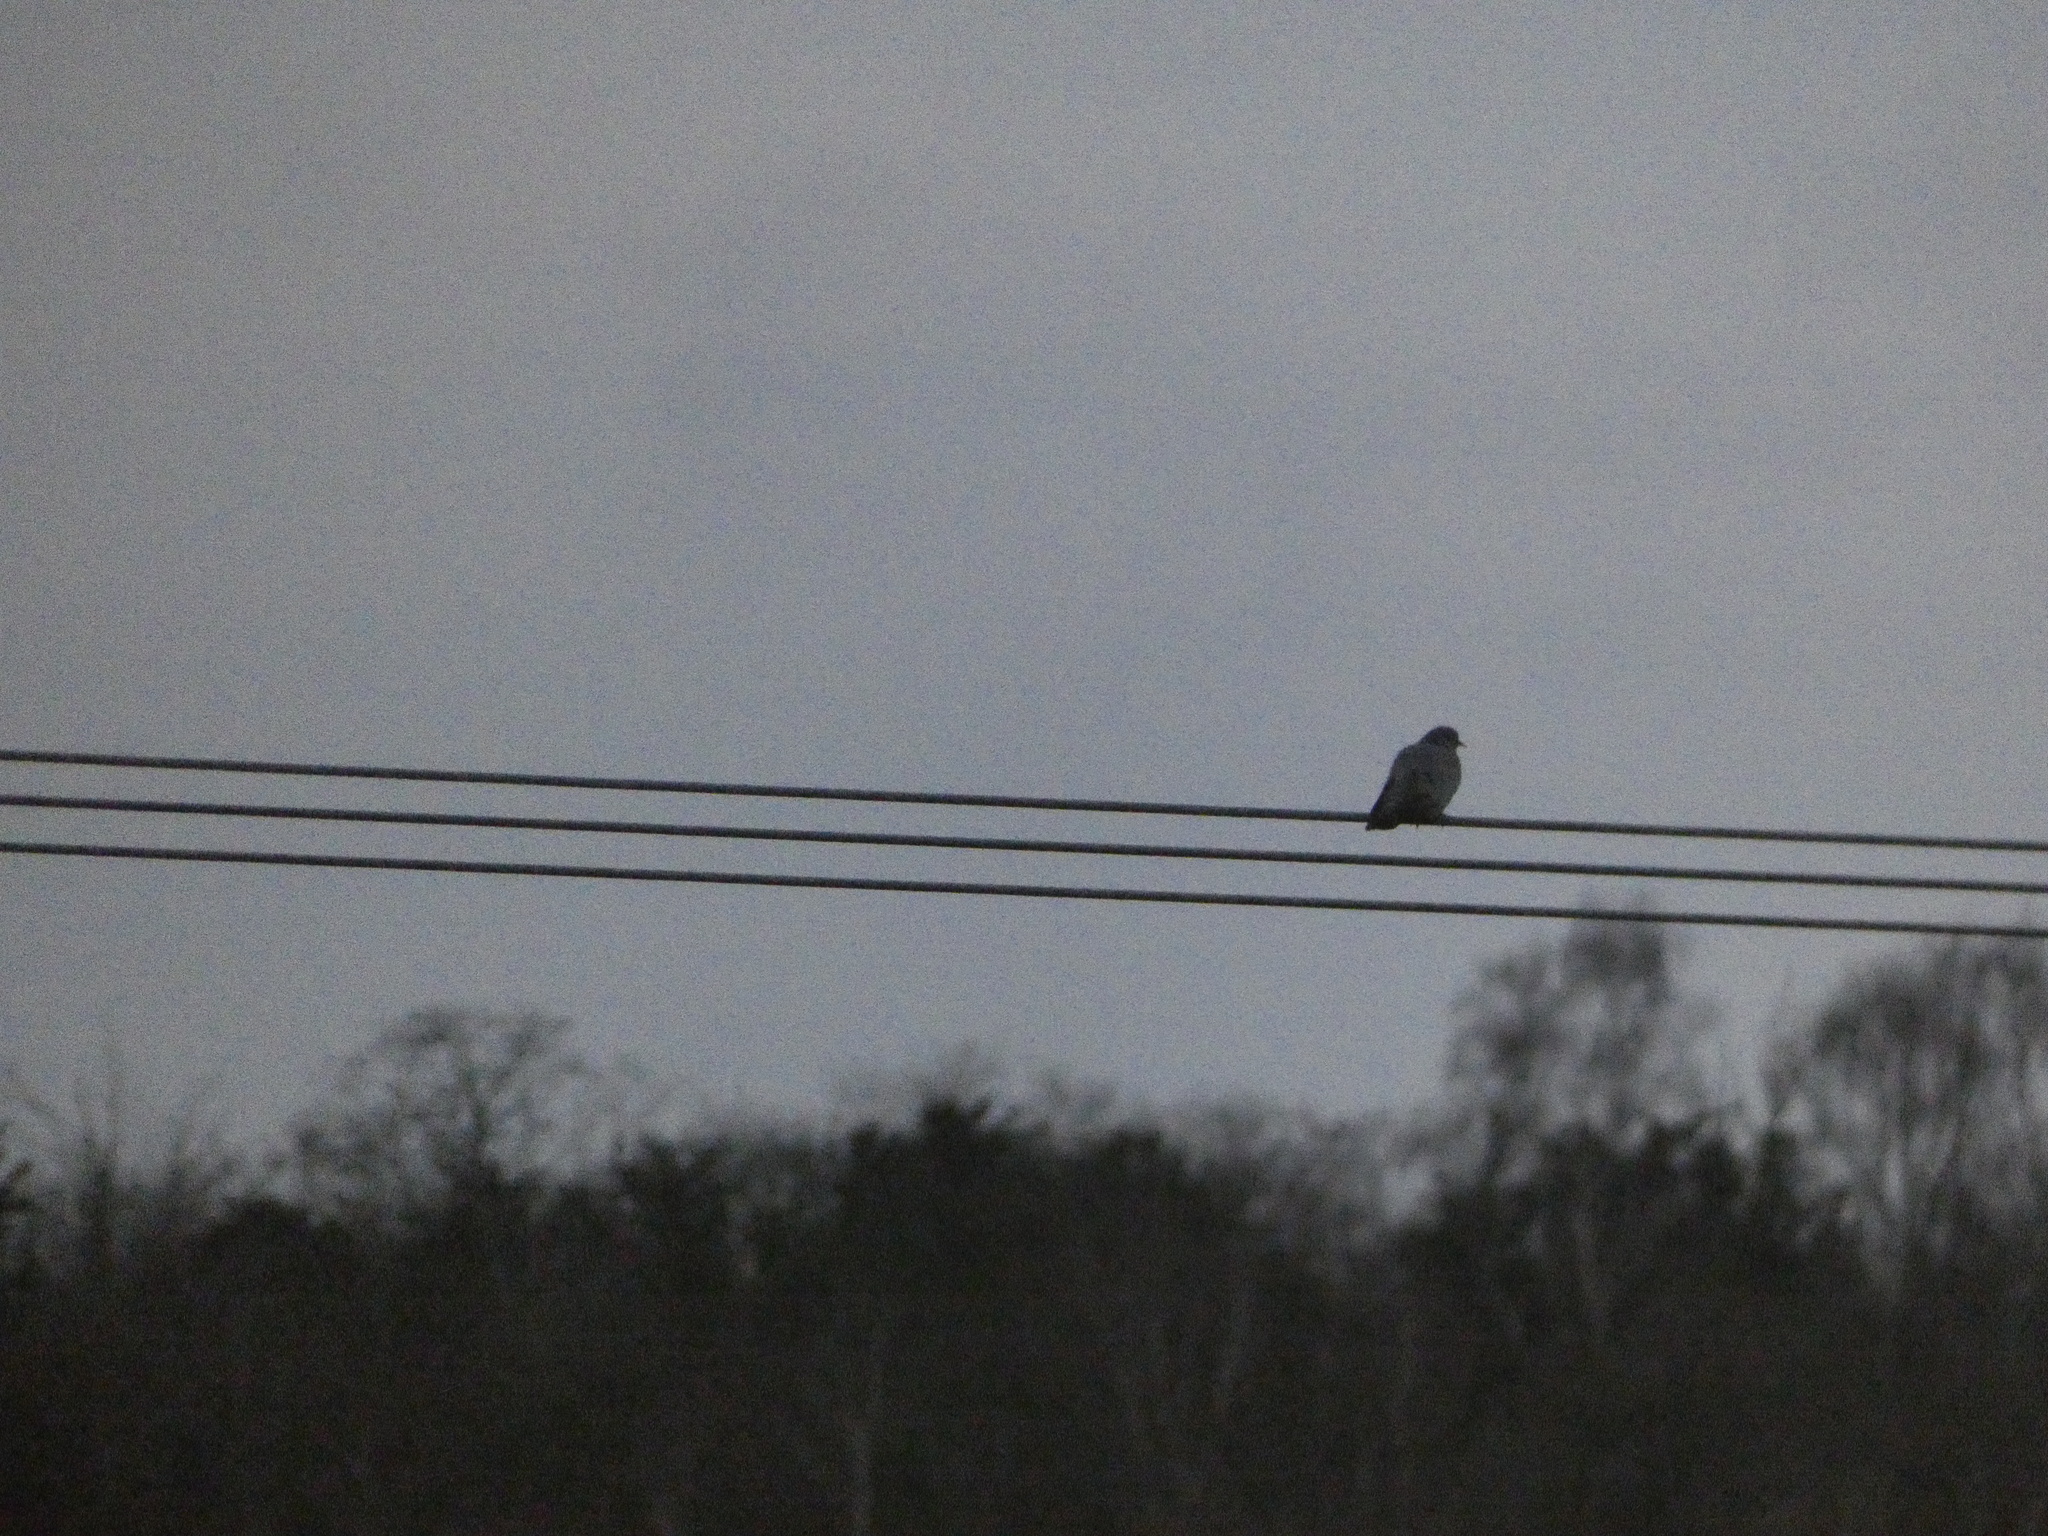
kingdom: Animalia
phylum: Chordata
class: Aves
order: Columbiformes
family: Columbidae
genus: Columba
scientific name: Columba oenas
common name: Stock dove
